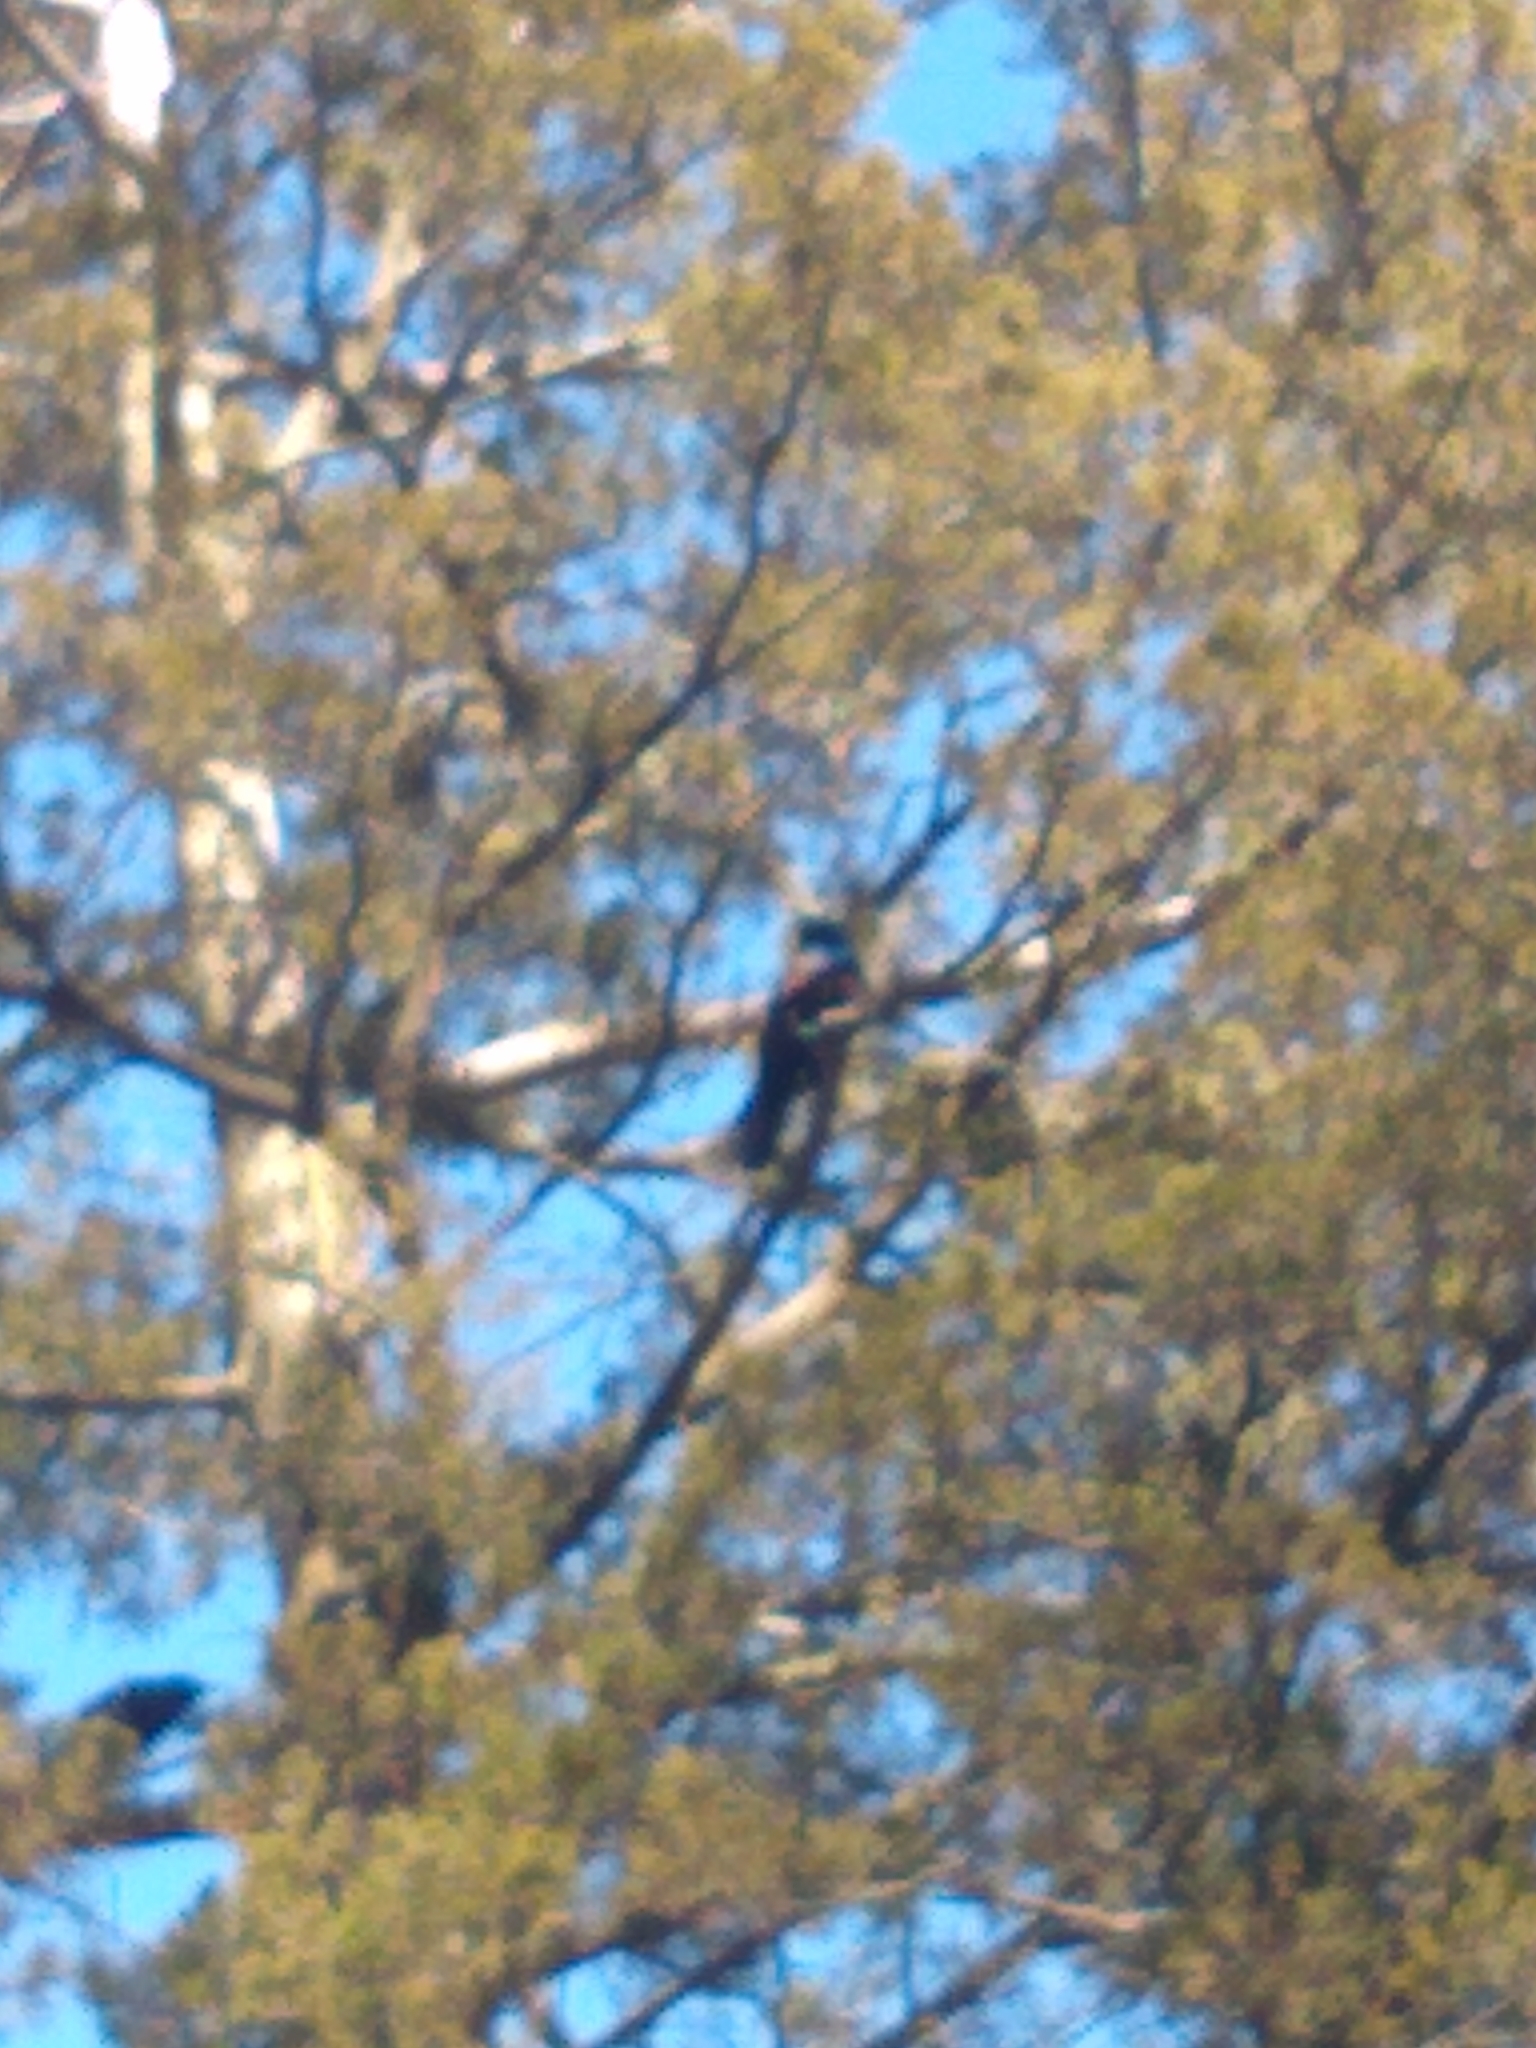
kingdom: Animalia
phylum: Chordata
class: Aves
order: Passeriformes
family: Icteridae
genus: Quiscalus
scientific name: Quiscalus quiscula
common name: Common grackle
